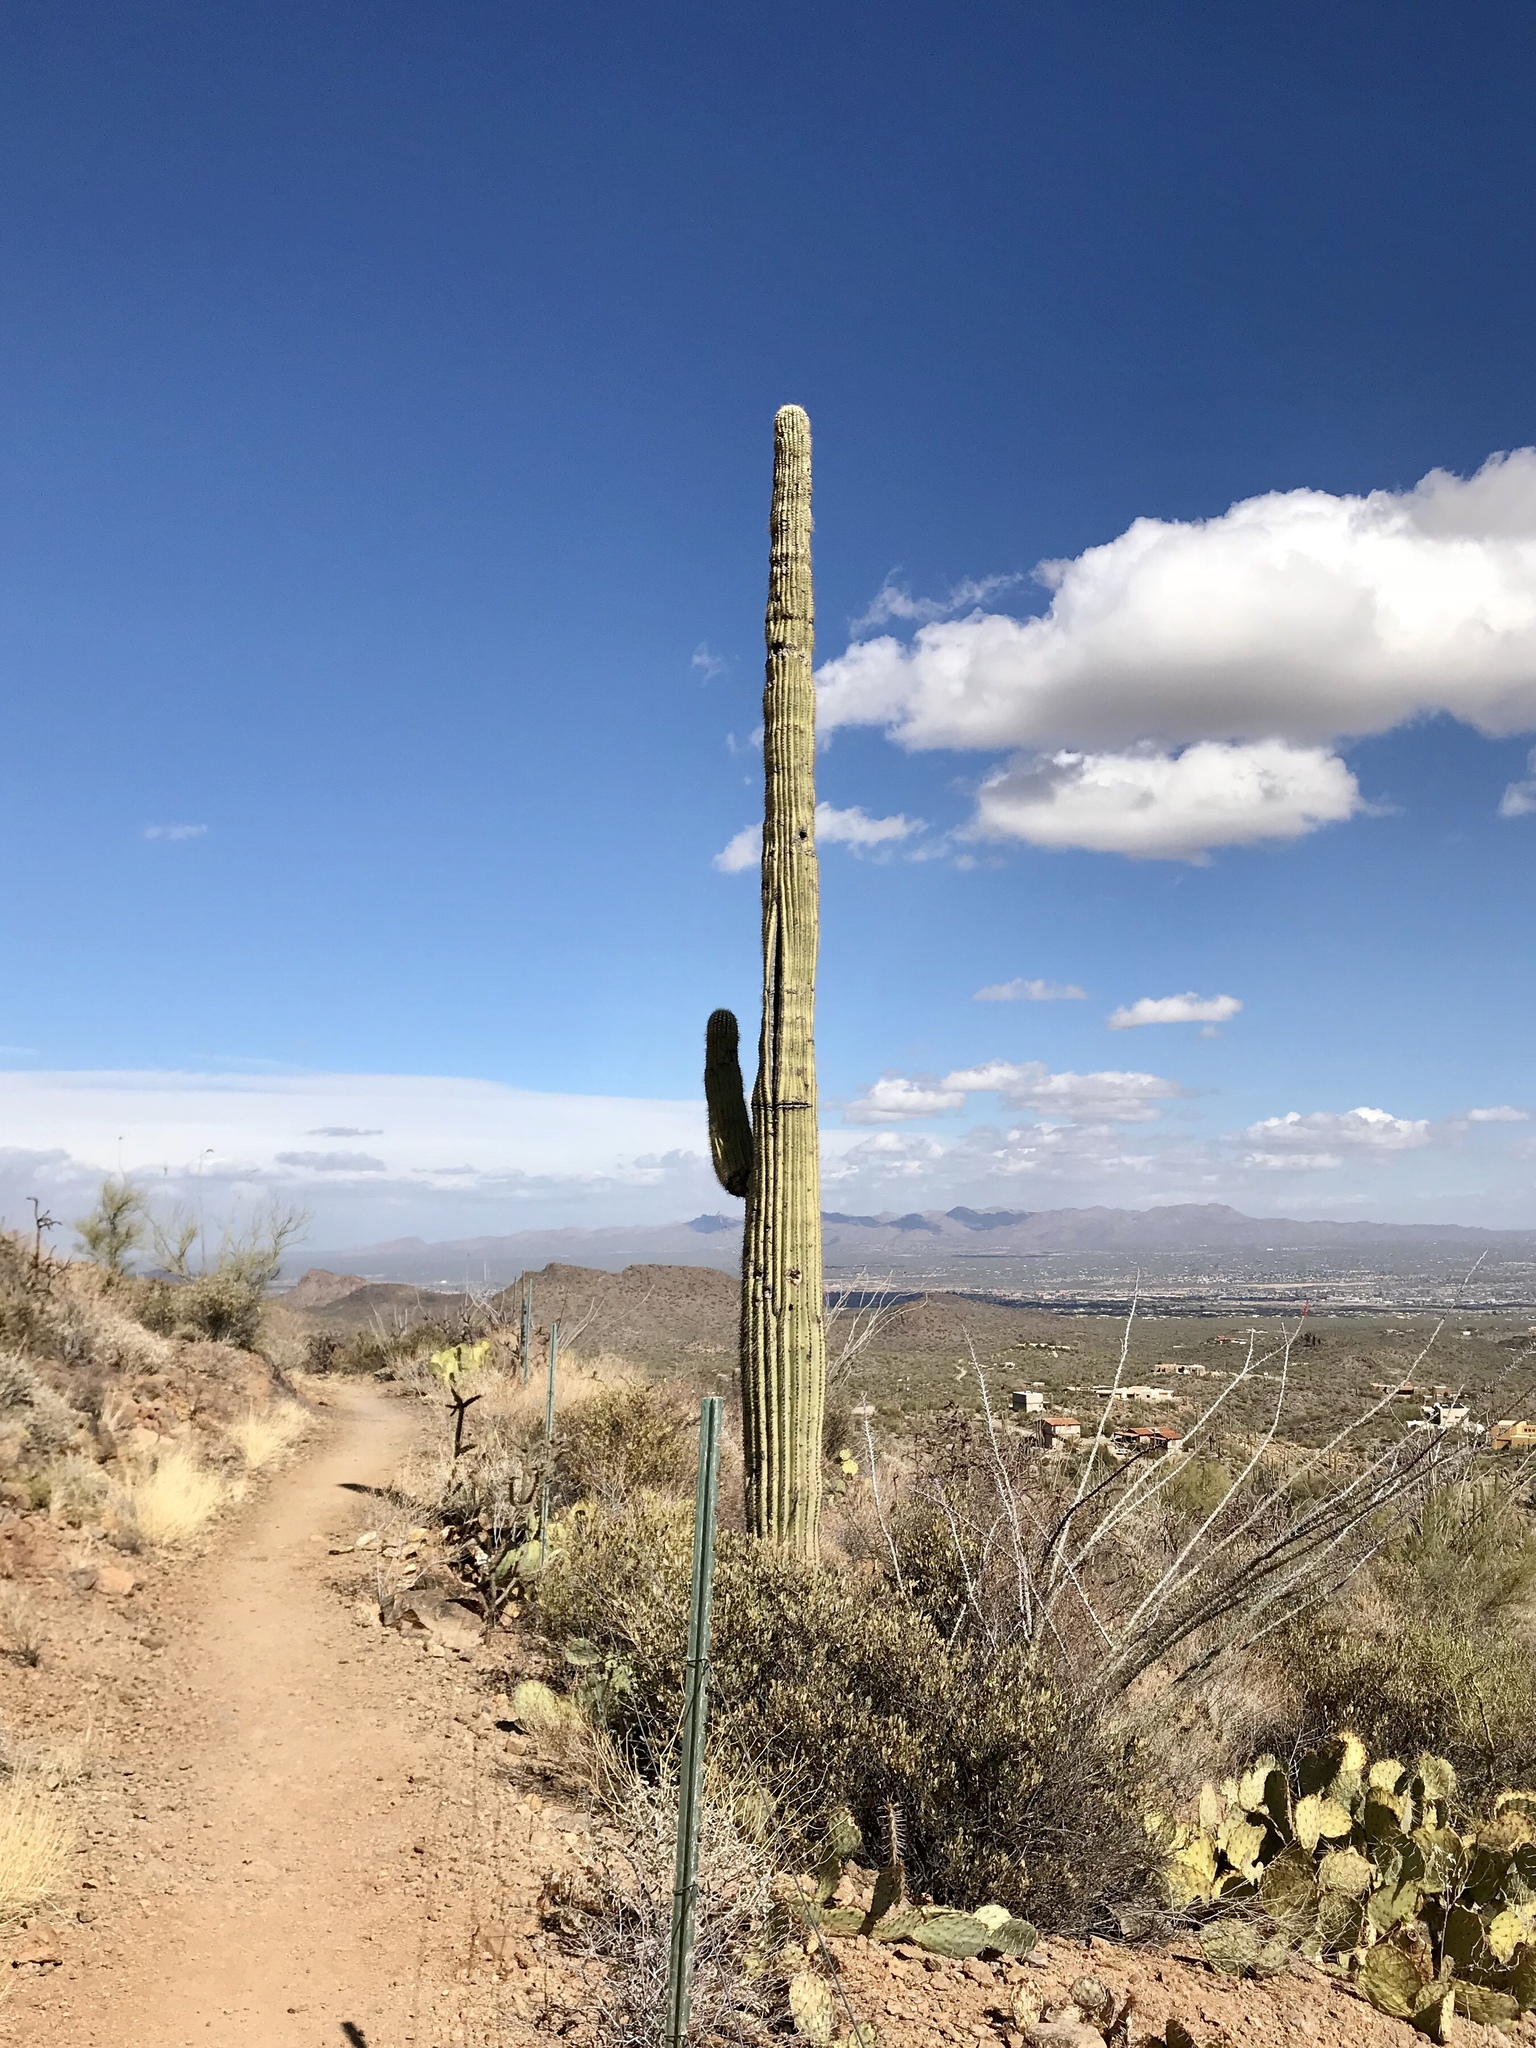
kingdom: Plantae
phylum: Tracheophyta
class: Magnoliopsida
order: Caryophyllales
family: Cactaceae
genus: Carnegiea
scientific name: Carnegiea gigantea
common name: Saguaro
